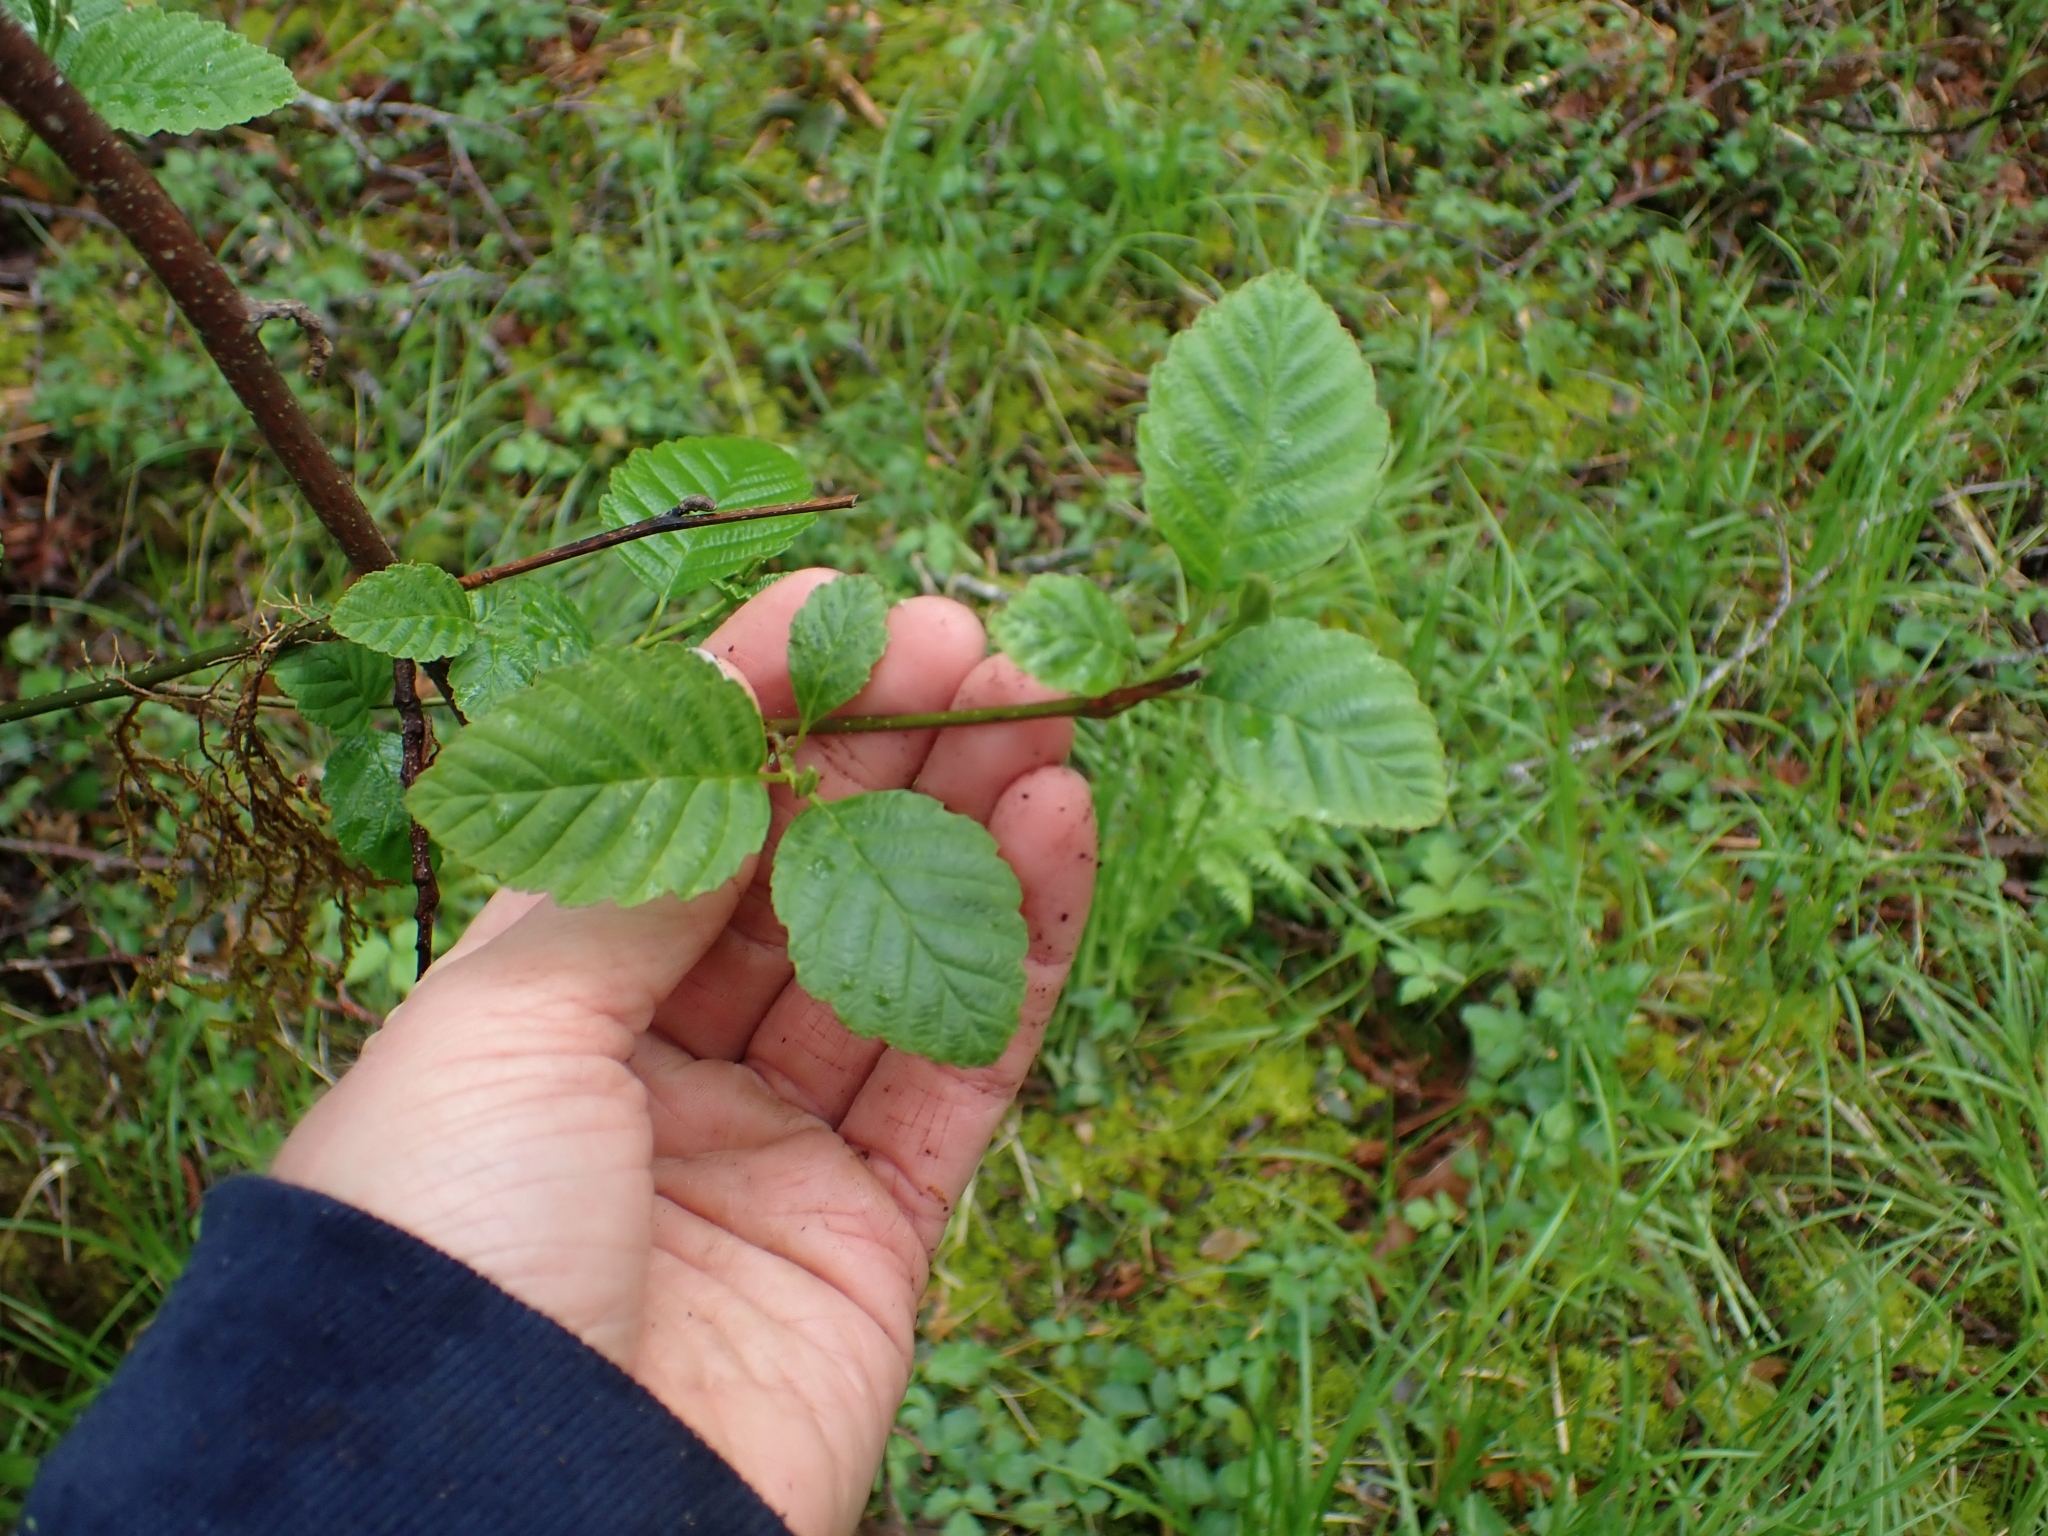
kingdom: Plantae
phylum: Tracheophyta
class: Magnoliopsida
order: Fagales
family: Betulaceae
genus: Alnus
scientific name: Alnus rubra
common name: Red alder
